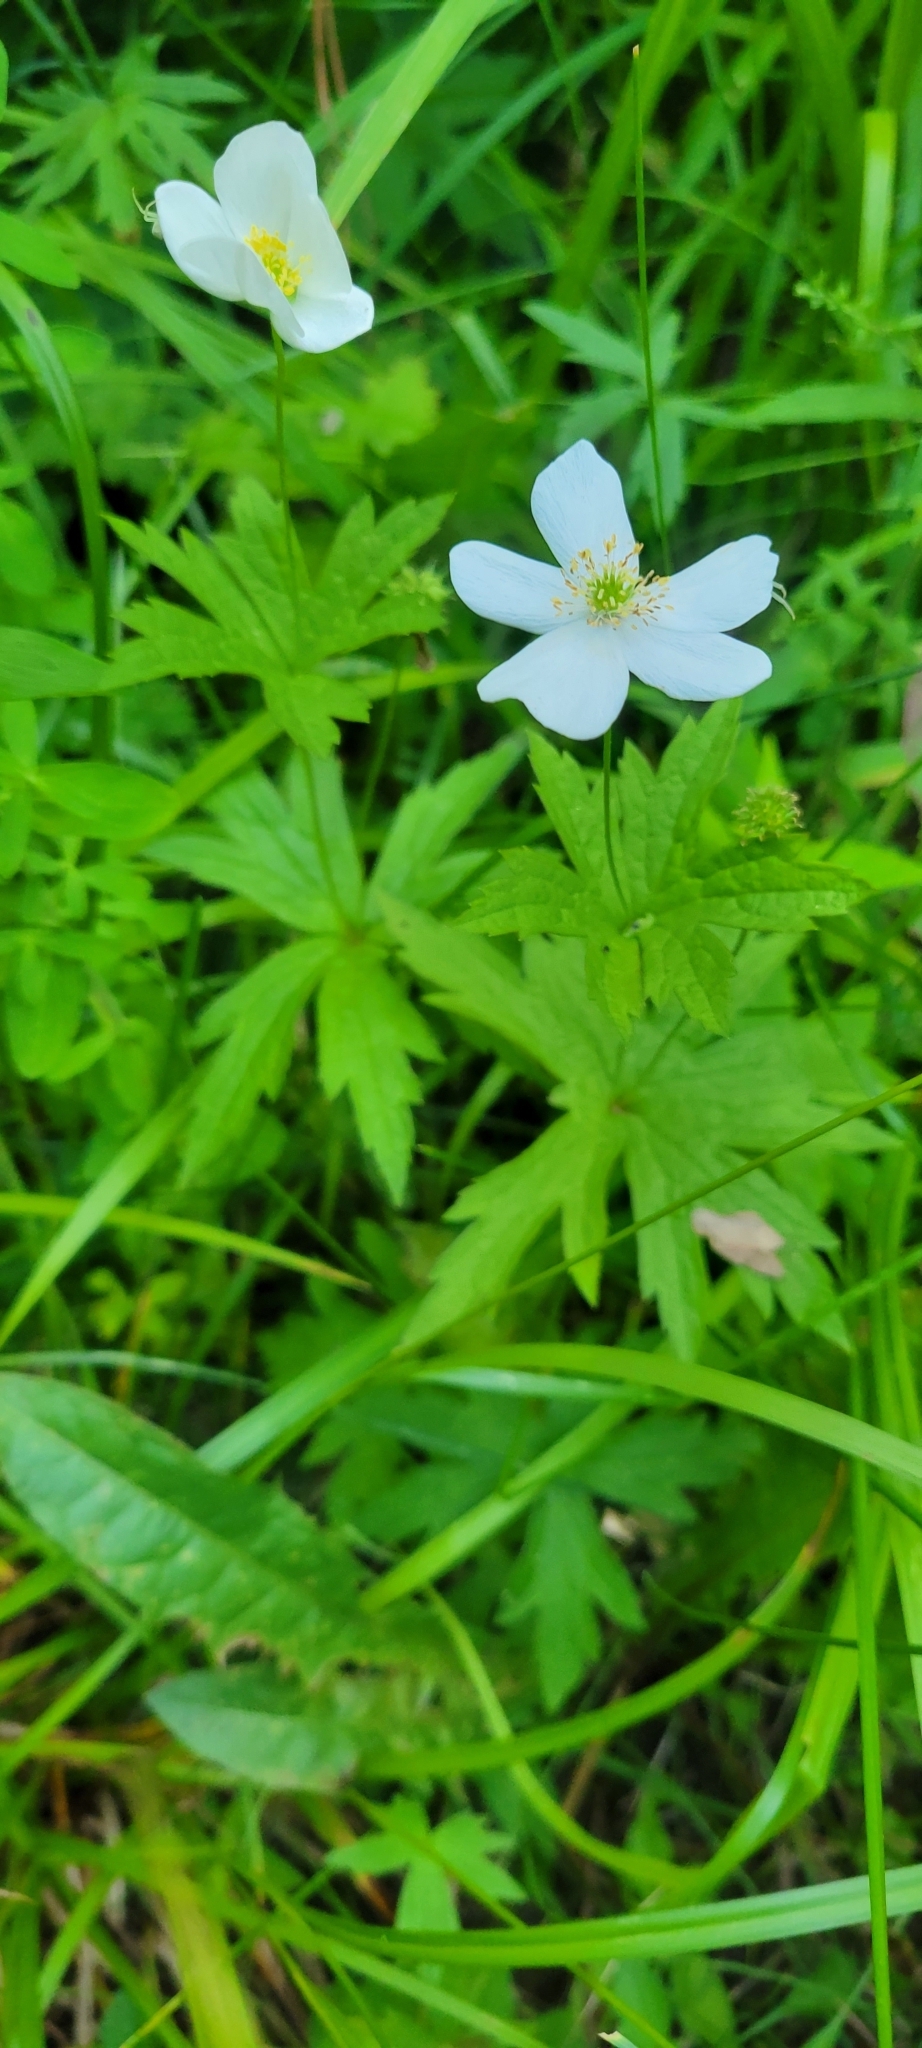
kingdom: Plantae
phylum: Tracheophyta
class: Magnoliopsida
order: Ranunculales
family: Ranunculaceae
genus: Anemonastrum
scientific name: Anemonastrum canadense
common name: Canada anemone
